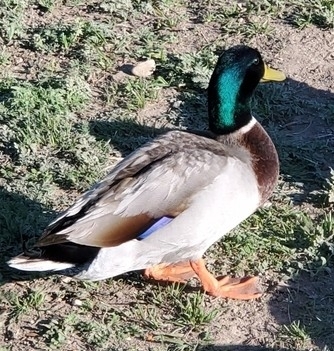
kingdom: Animalia
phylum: Chordata
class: Aves
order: Anseriformes
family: Anatidae
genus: Anas
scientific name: Anas platyrhynchos
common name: Mallard
